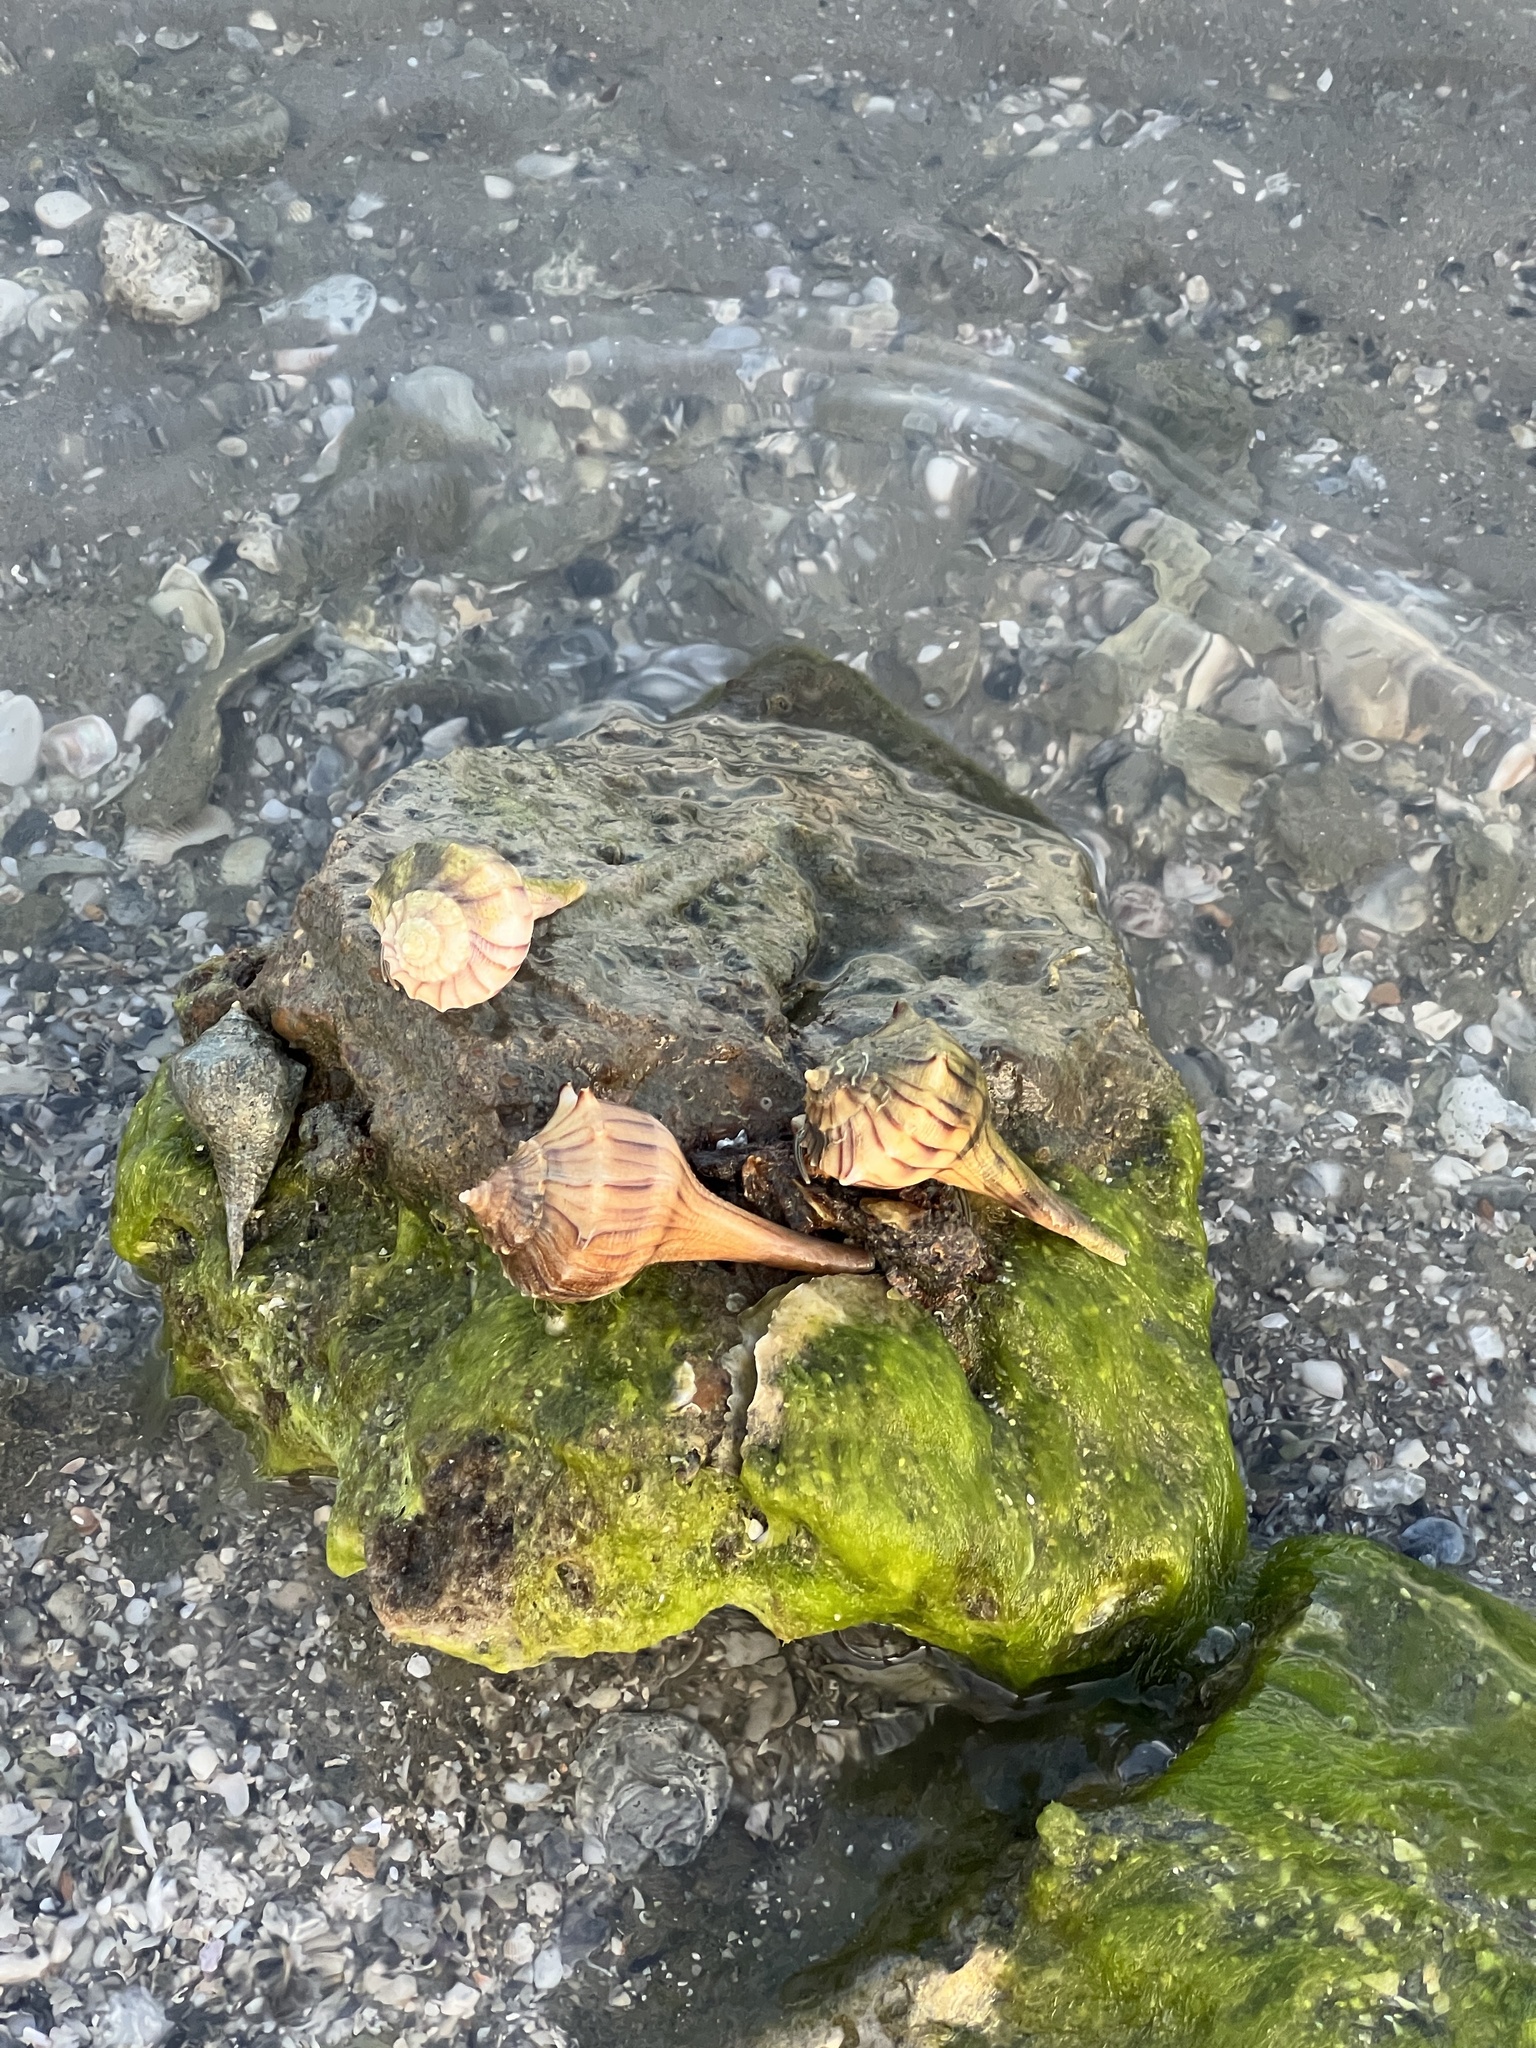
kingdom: Animalia
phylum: Mollusca
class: Gastropoda
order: Neogastropoda
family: Busyconidae
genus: Sinistrofulgur
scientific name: Sinistrofulgur pulleyi
